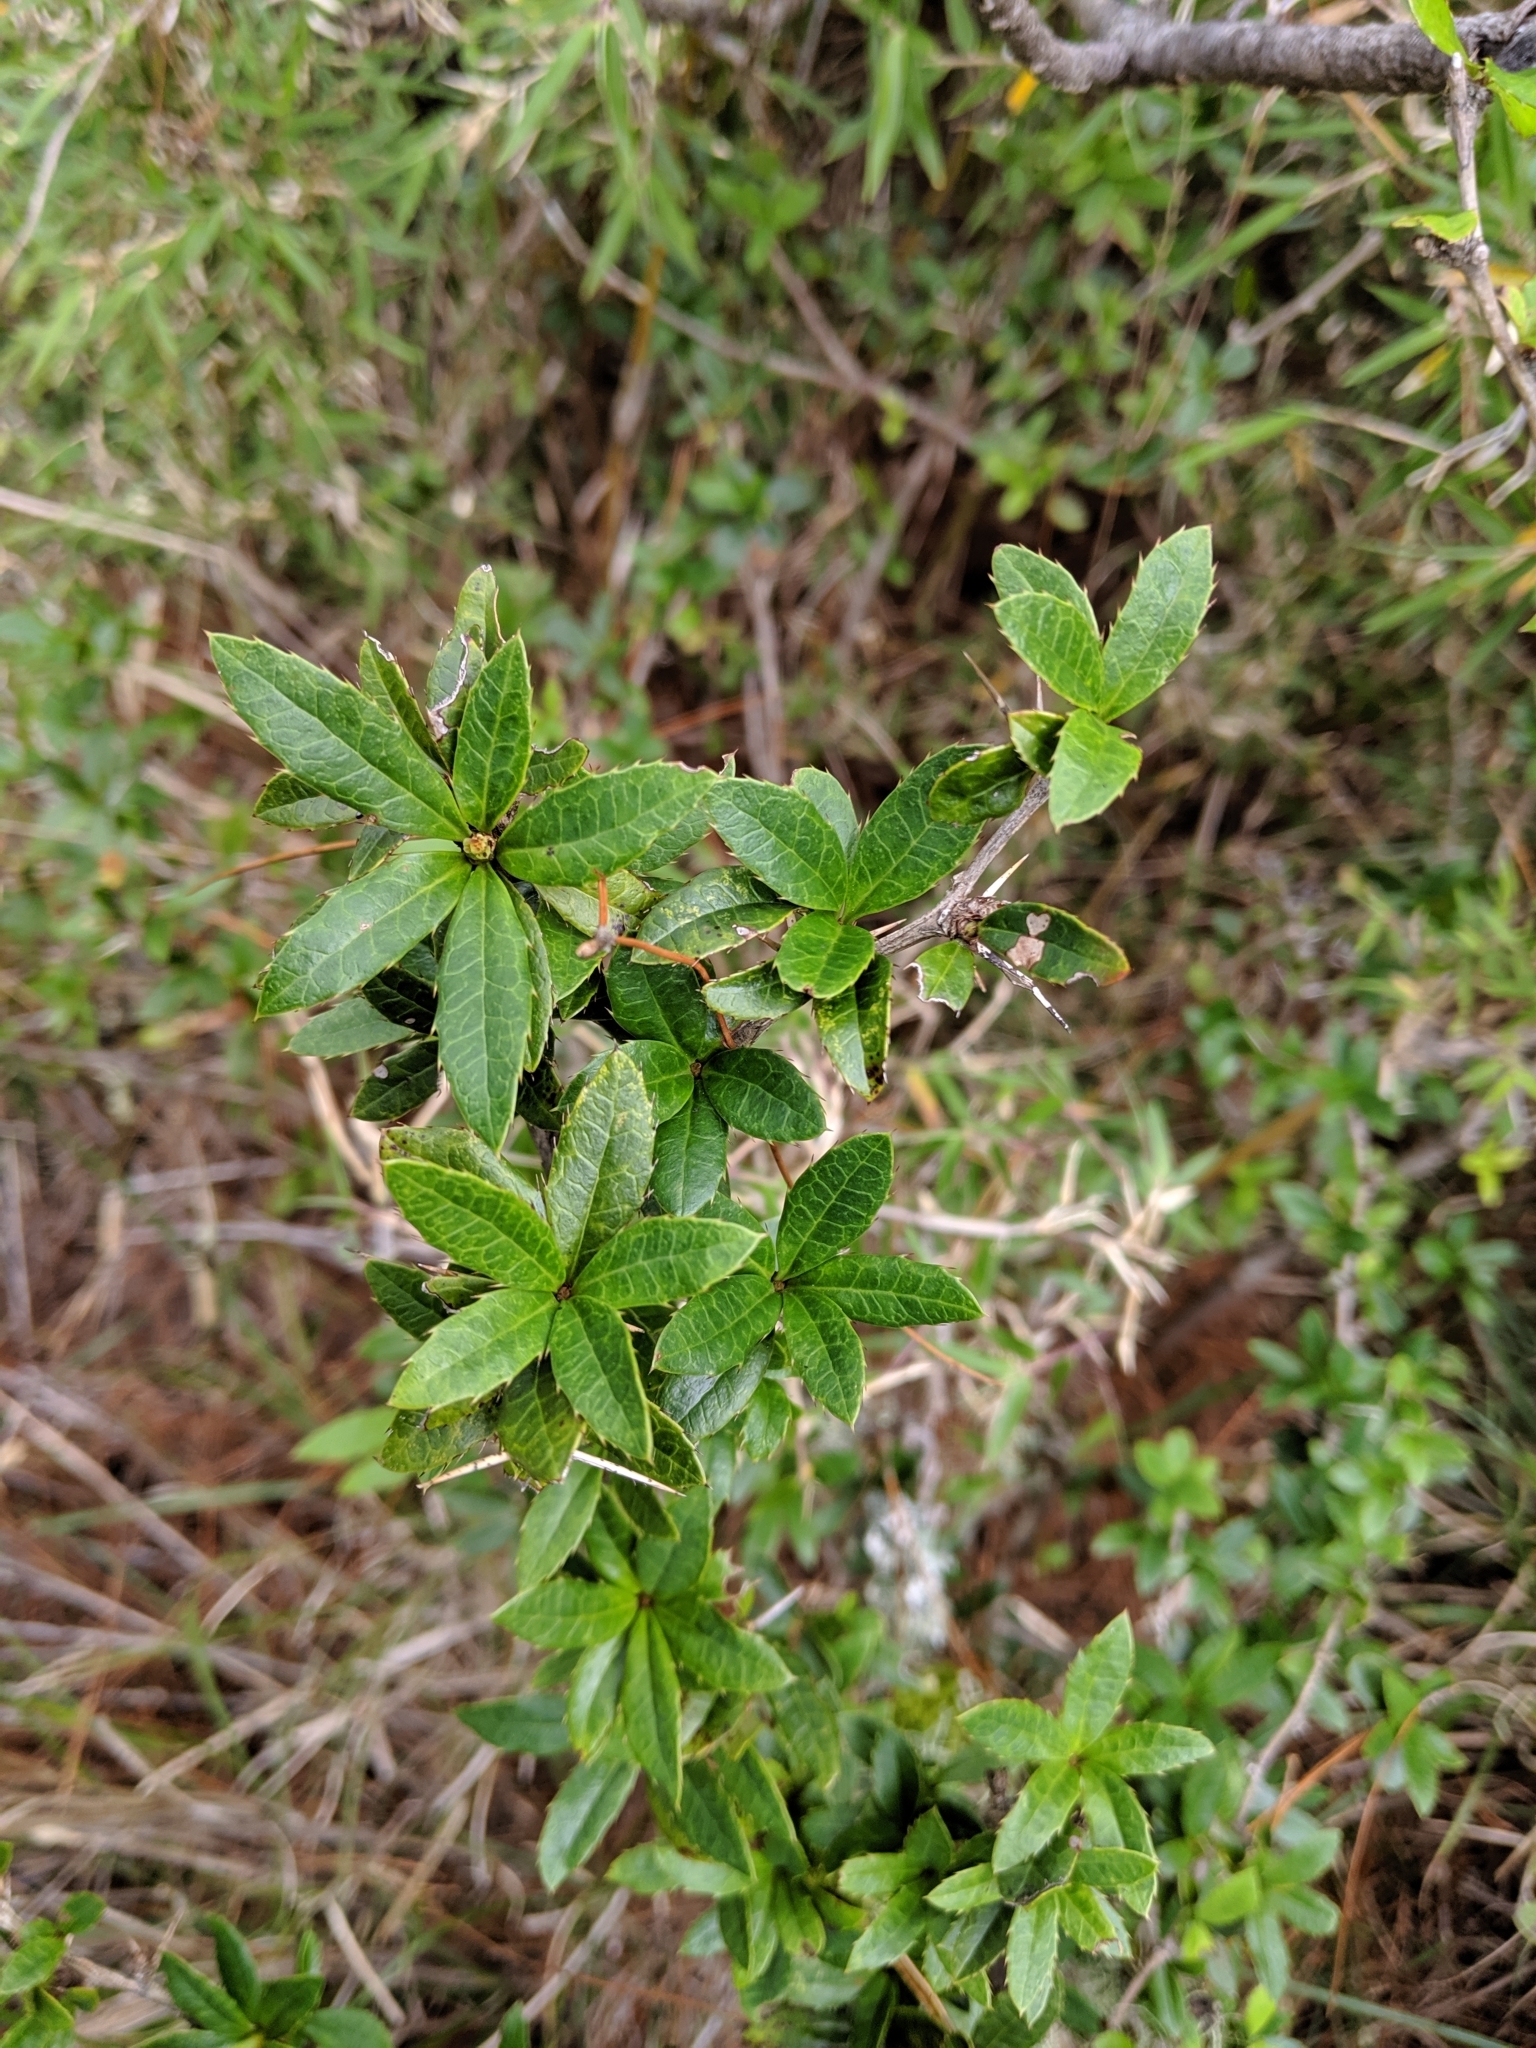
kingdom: Plantae
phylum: Tracheophyta
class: Magnoliopsida
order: Ranunculales
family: Berberidaceae
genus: Berberis
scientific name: Berberis kawakamii
